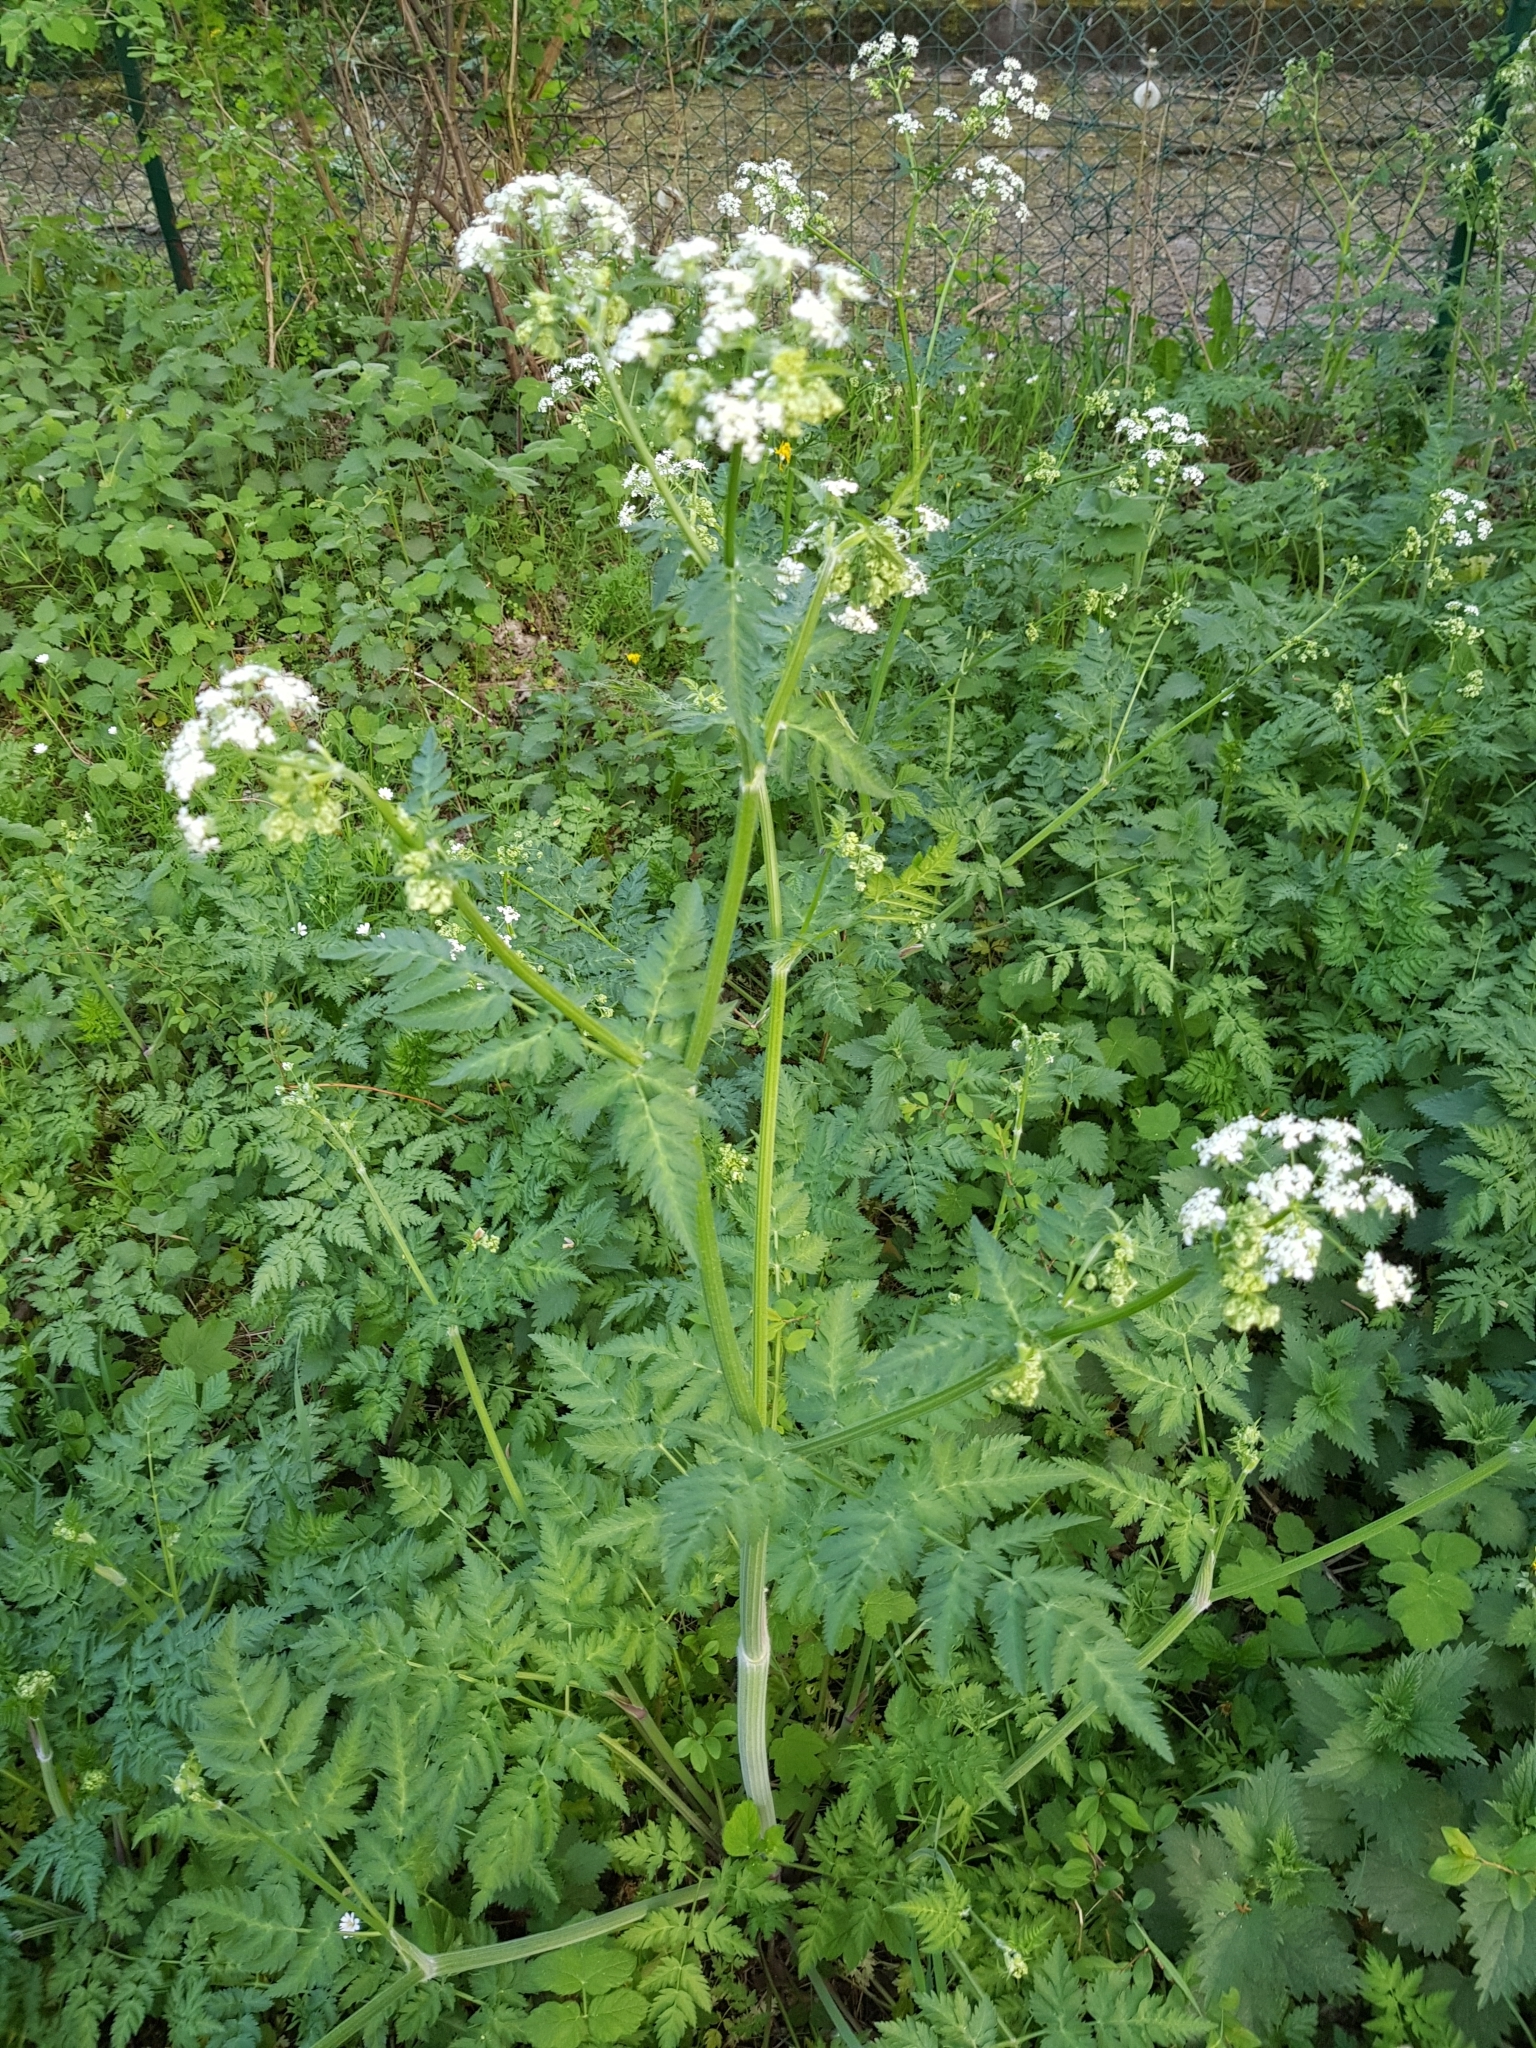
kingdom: Plantae
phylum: Tracheophyta
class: Magnoliopsida
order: Apiales
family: Apiaceae
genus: Anthriscus
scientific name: Anthriscus sylvestris
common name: Cow parsley
